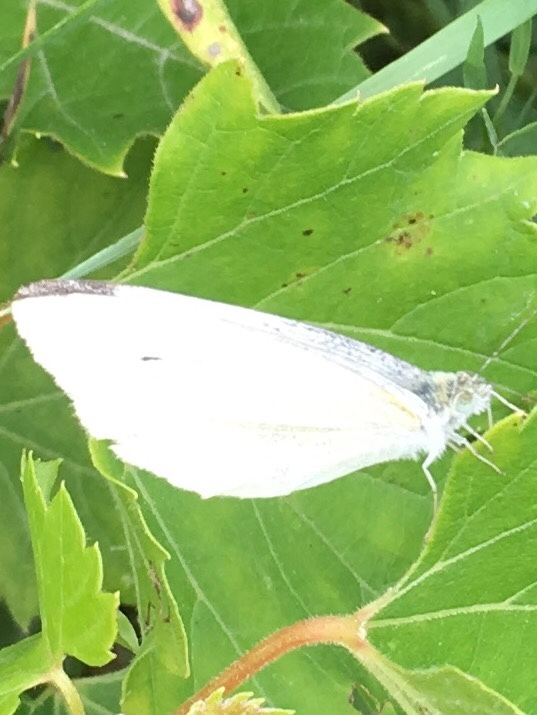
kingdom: Animalia
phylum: Arthropoda
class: Insecta
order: Lepidoptera
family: Pieridae
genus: Pieris
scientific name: Pieris rapae
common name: Small white
